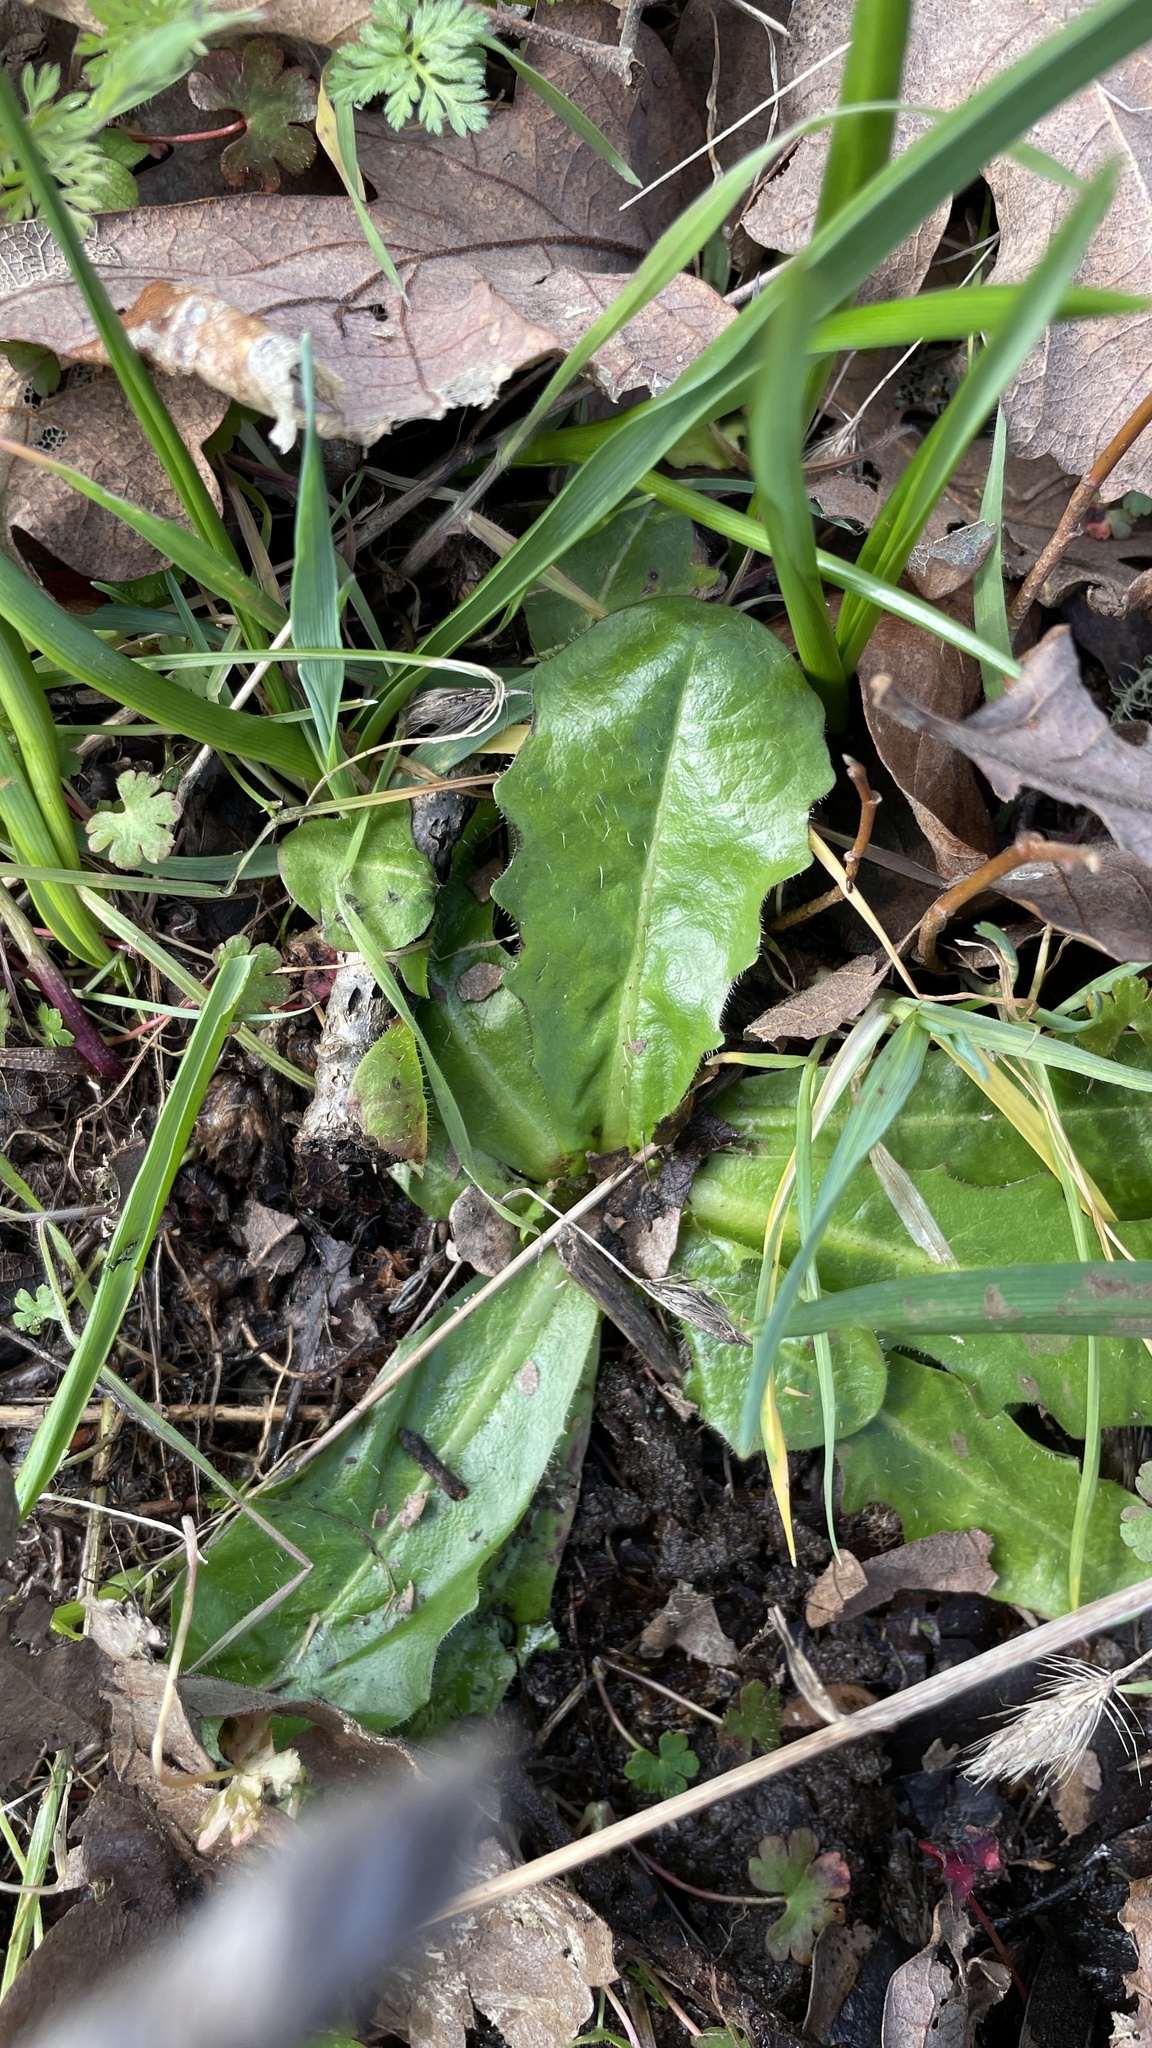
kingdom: Plantae
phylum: Tracheophyta
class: Magnoliopsida
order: Asterales
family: Asteraceae
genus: Hypochaeris
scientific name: Hypochaeris radicata
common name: Flatweed
